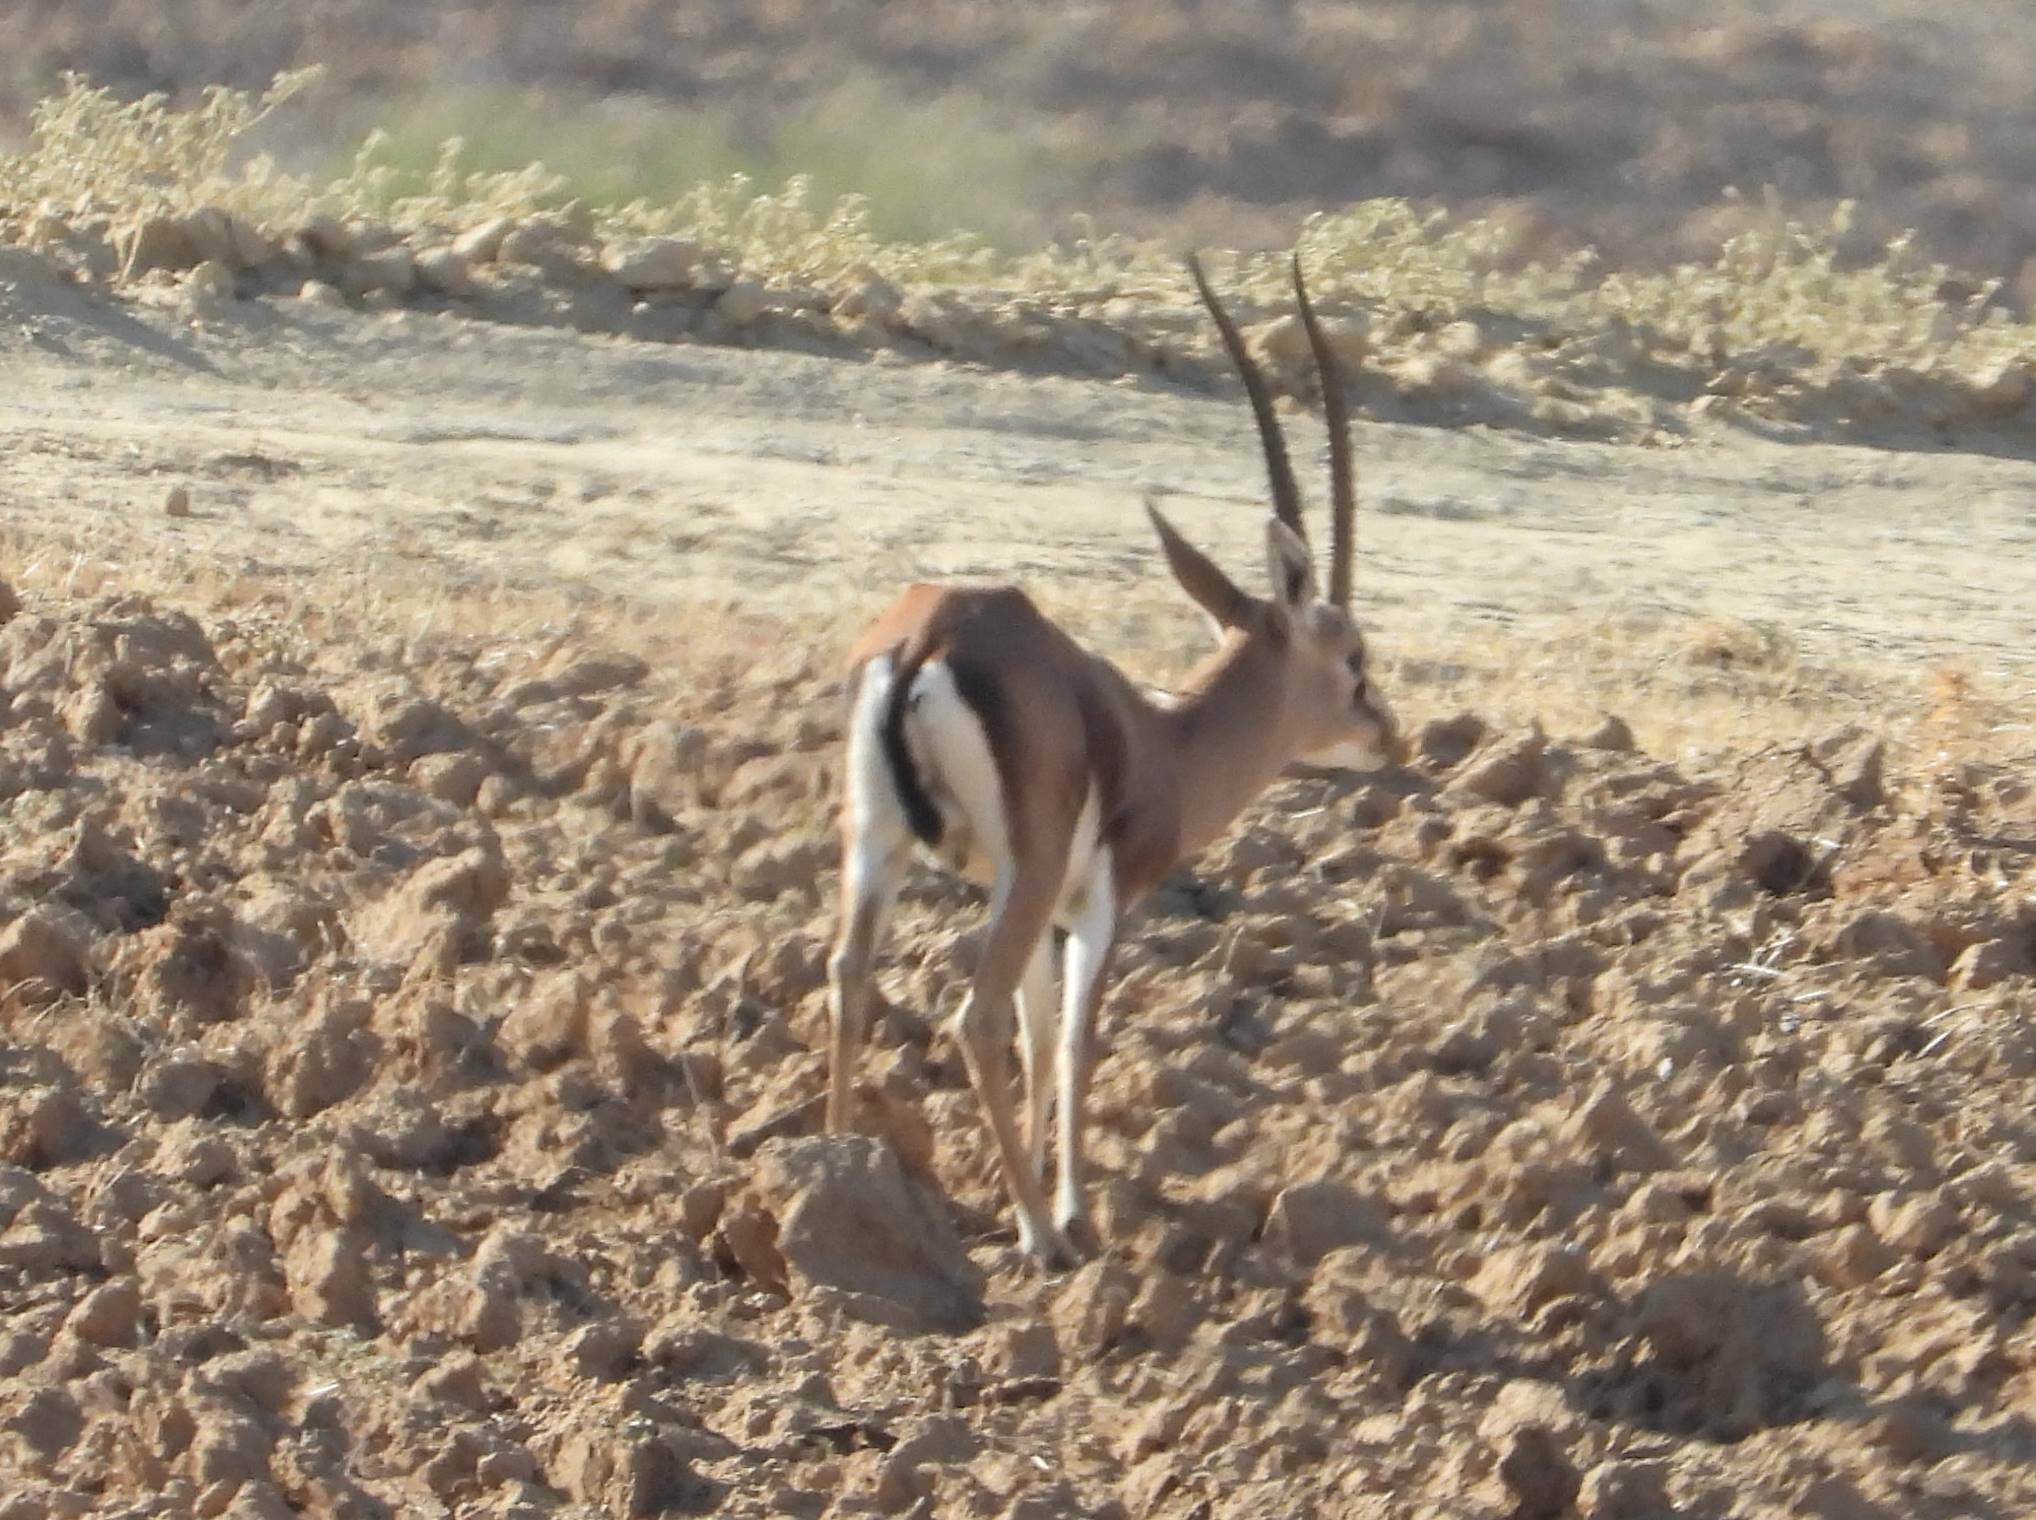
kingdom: Animalia
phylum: Chordata
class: Mammalia
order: Artiodactyla
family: Bovidae
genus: Gazella
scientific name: Gazella cuvieri
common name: Cuvier's gazelle
